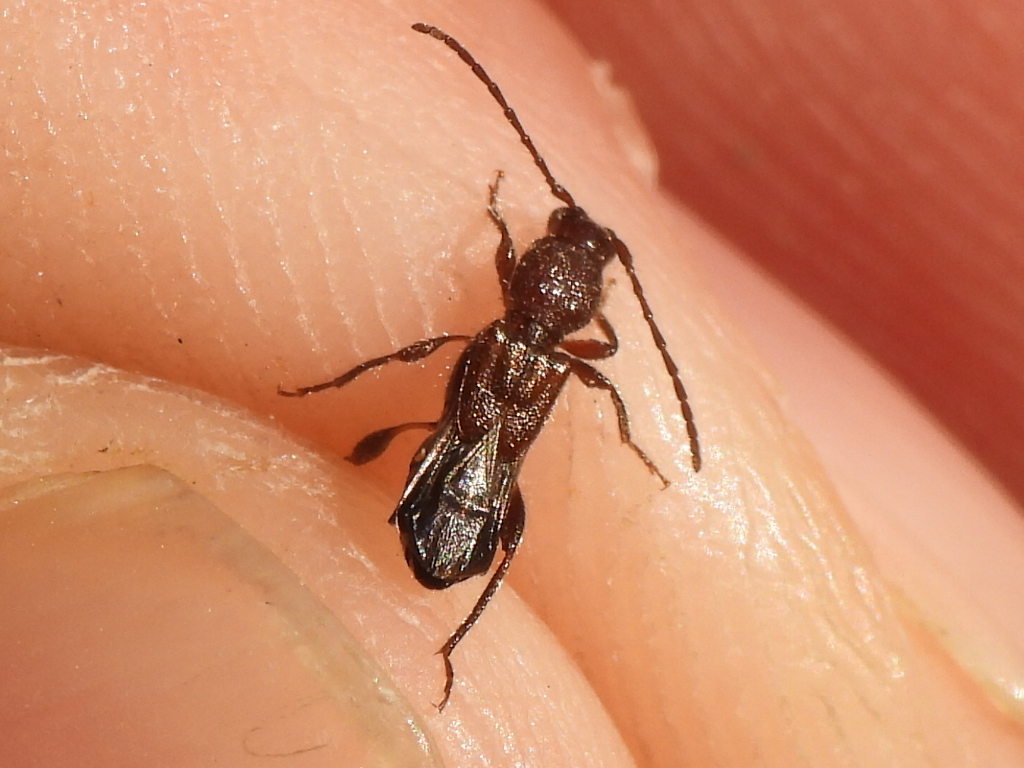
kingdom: Animalia
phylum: Arthropoda
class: Insecta
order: Coleoptera
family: Cerambycidae
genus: Molorchus
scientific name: Molorchus bimaculatus
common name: Bimaculate longhorn beetle
